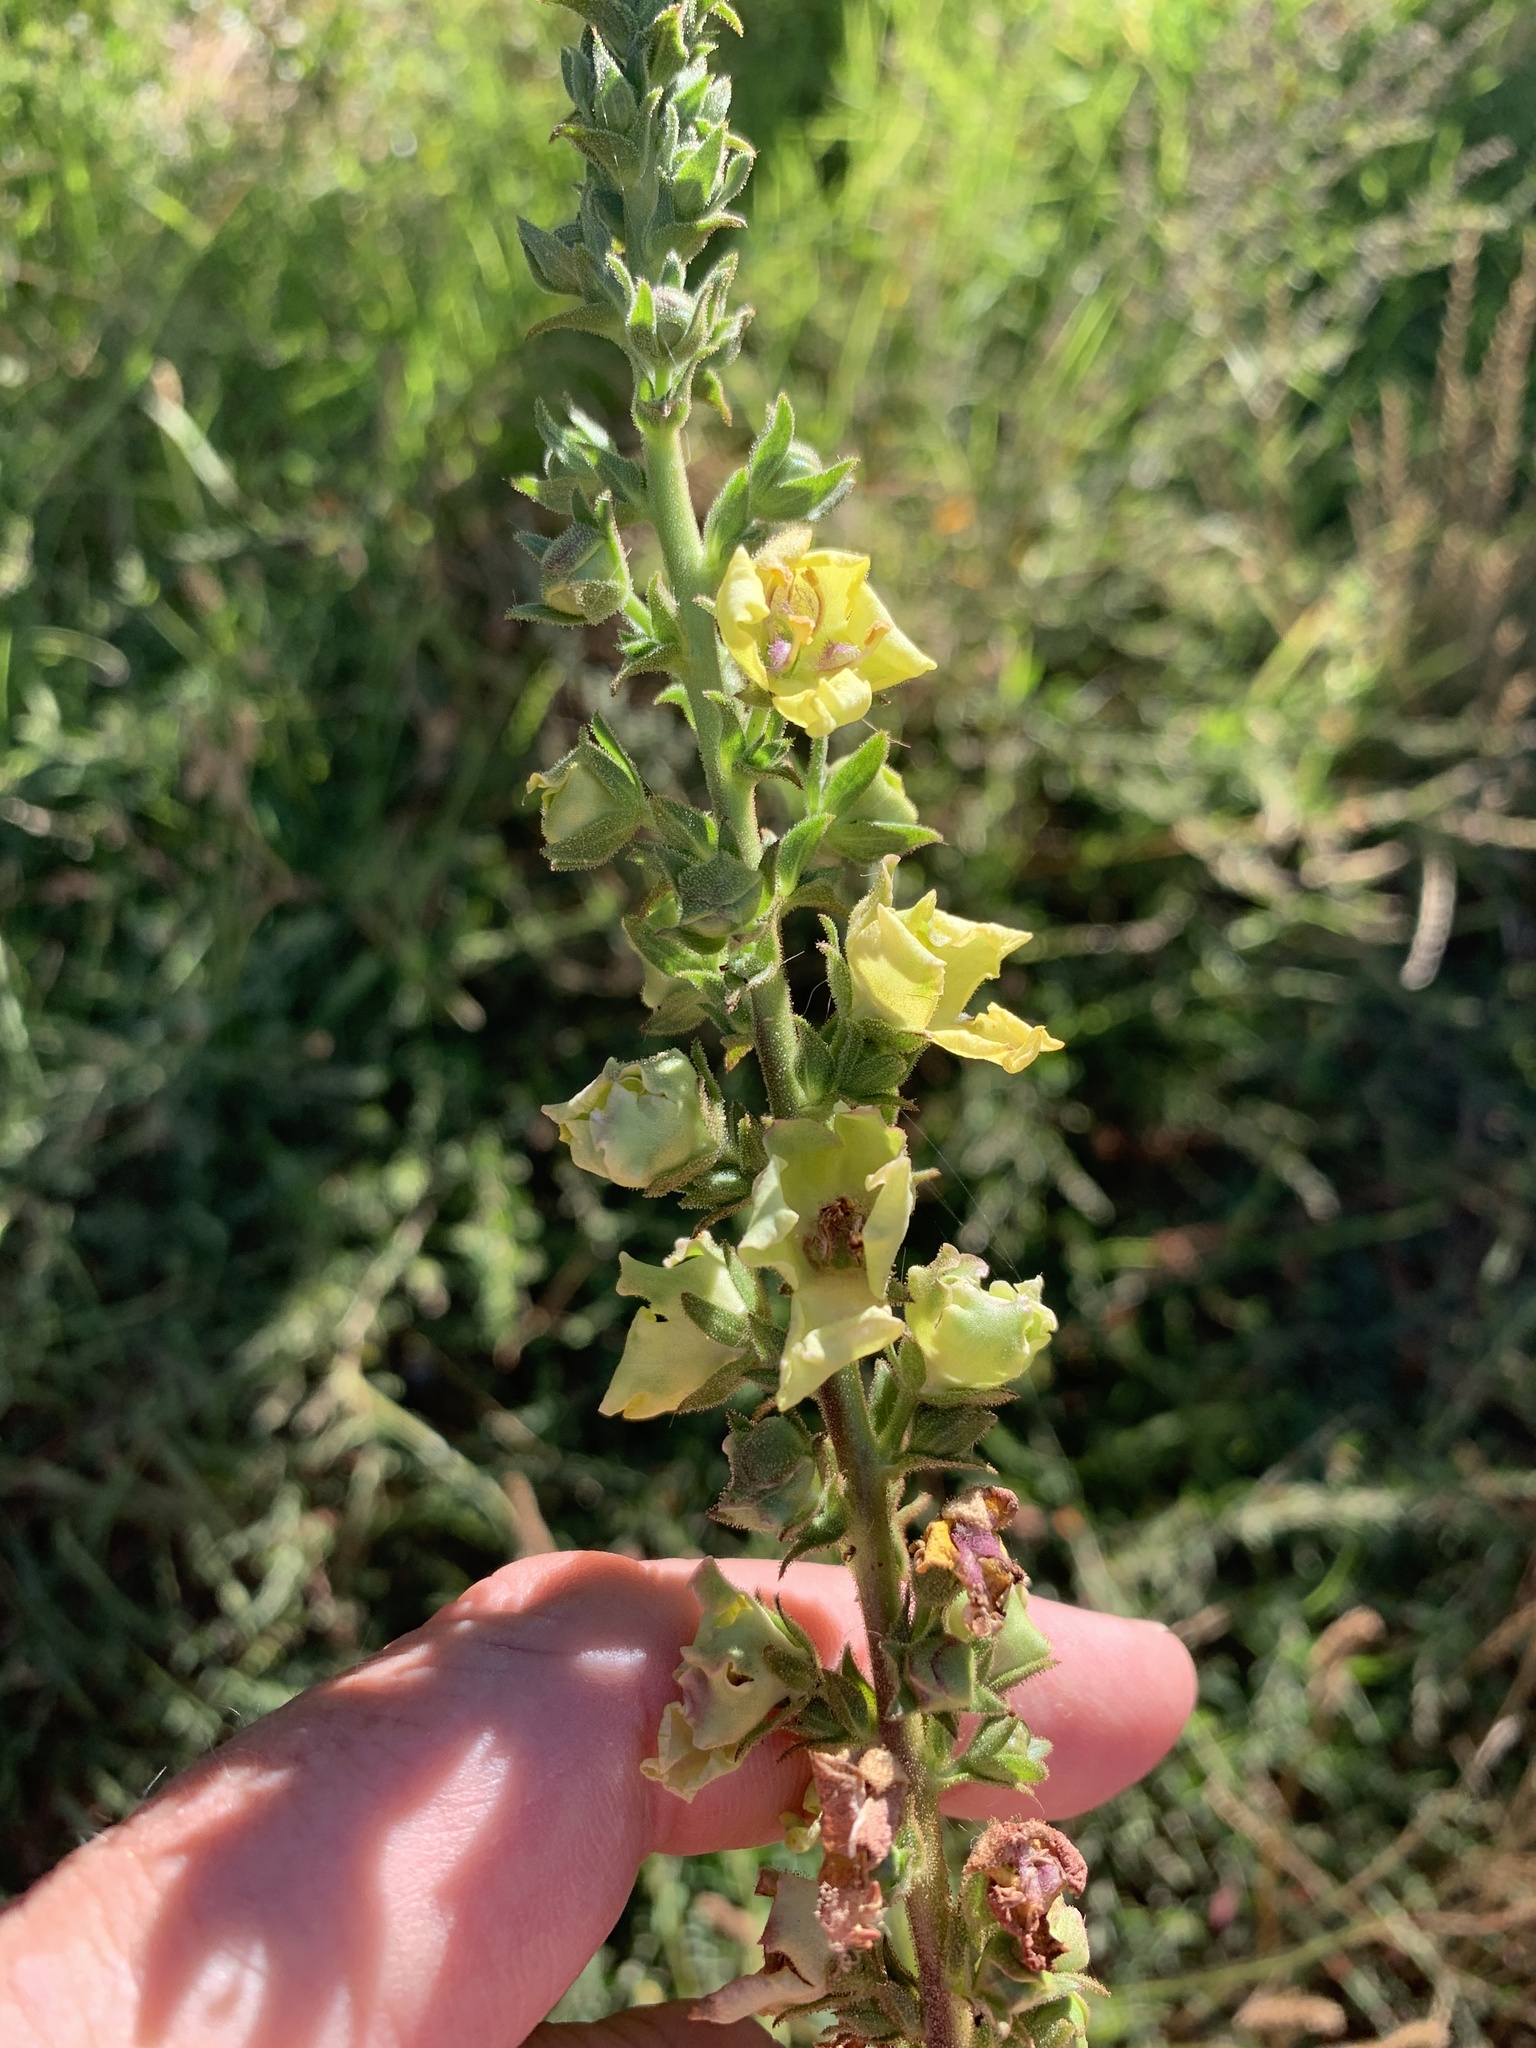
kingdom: Plantae
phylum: Tracheophyta
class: Magnoliopsida
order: Lamiales
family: Scrophulariaceae
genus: Verbascum
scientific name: Verbascum virgatum
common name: Twiggy mullein
